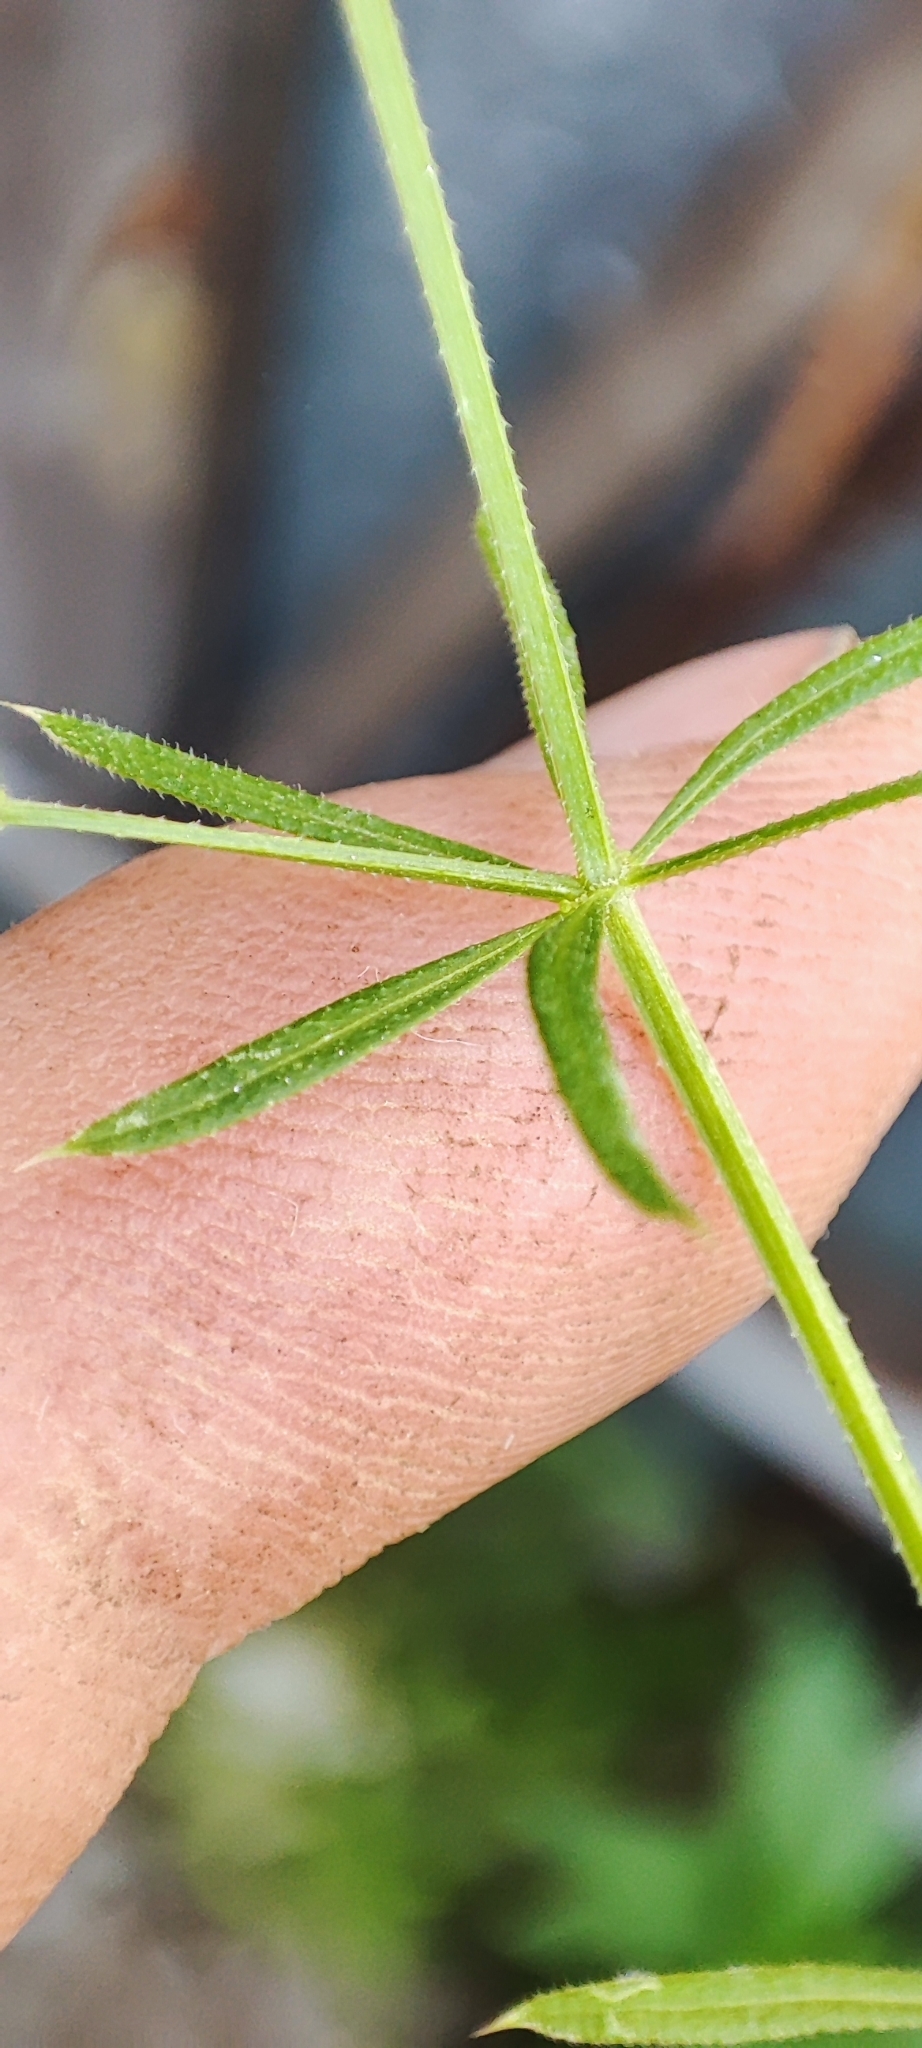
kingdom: Plantae
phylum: Tracheophyta
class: Magnoliopsida
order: Gentianales
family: Rubiaceae
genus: Galium
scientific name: Galium spurium
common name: False cleavers
